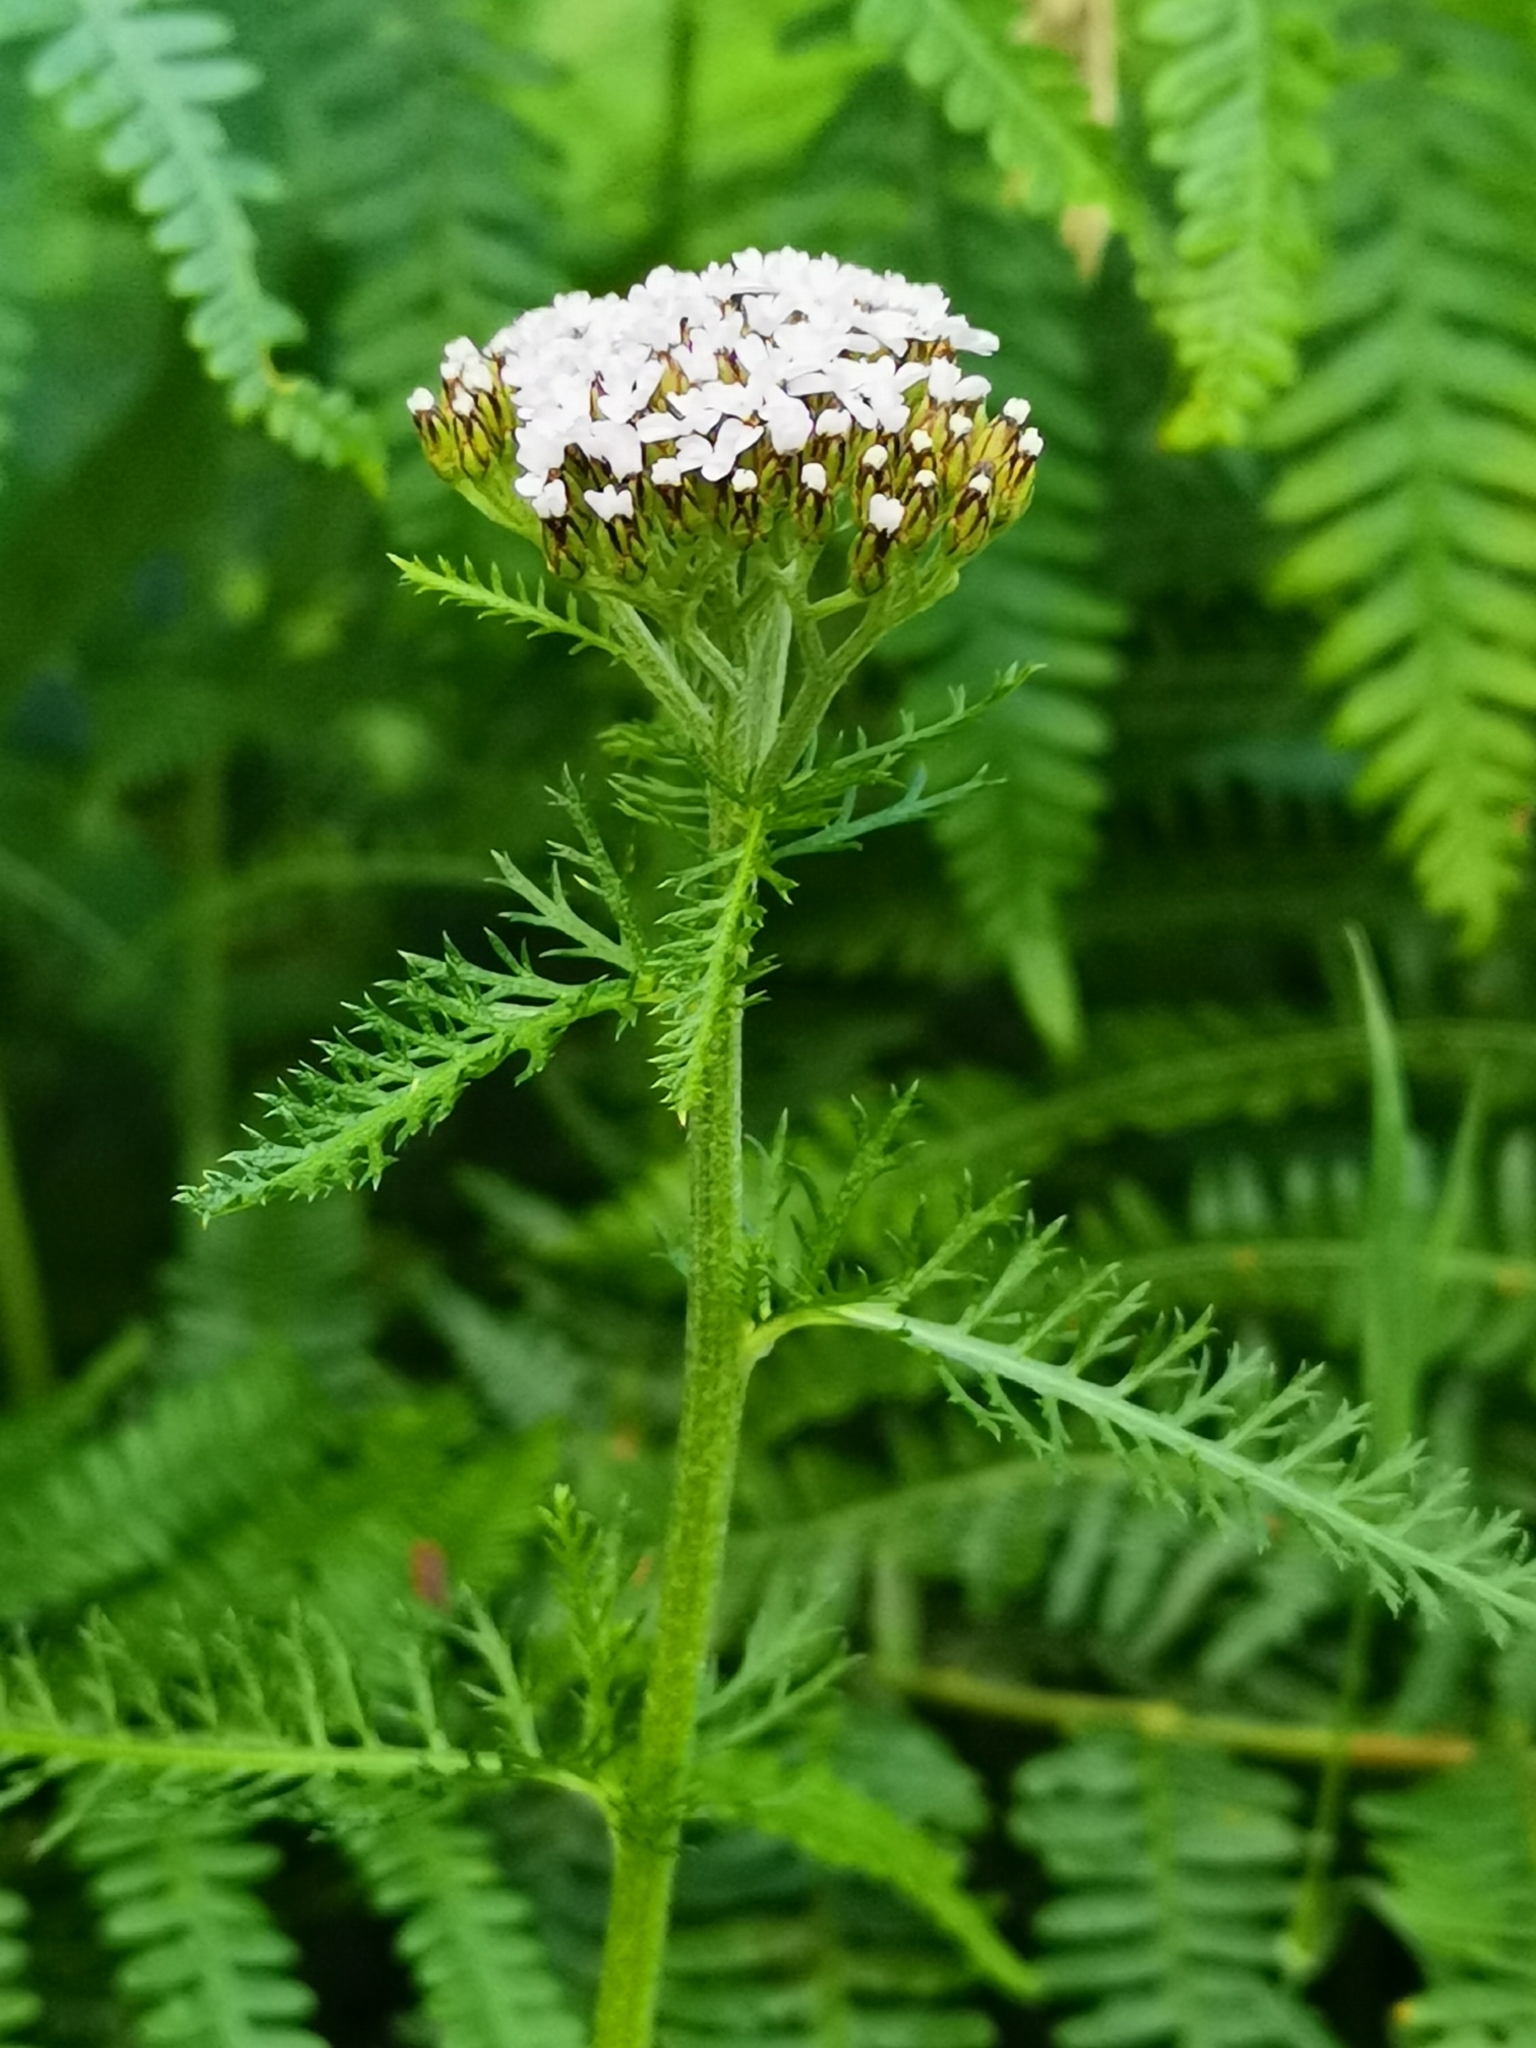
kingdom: Plantae
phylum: Tracheophyta
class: Magnoliopsida
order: Asterales
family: Asteraceae
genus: Achillea
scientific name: Achillea millefolium
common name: Yarrow
